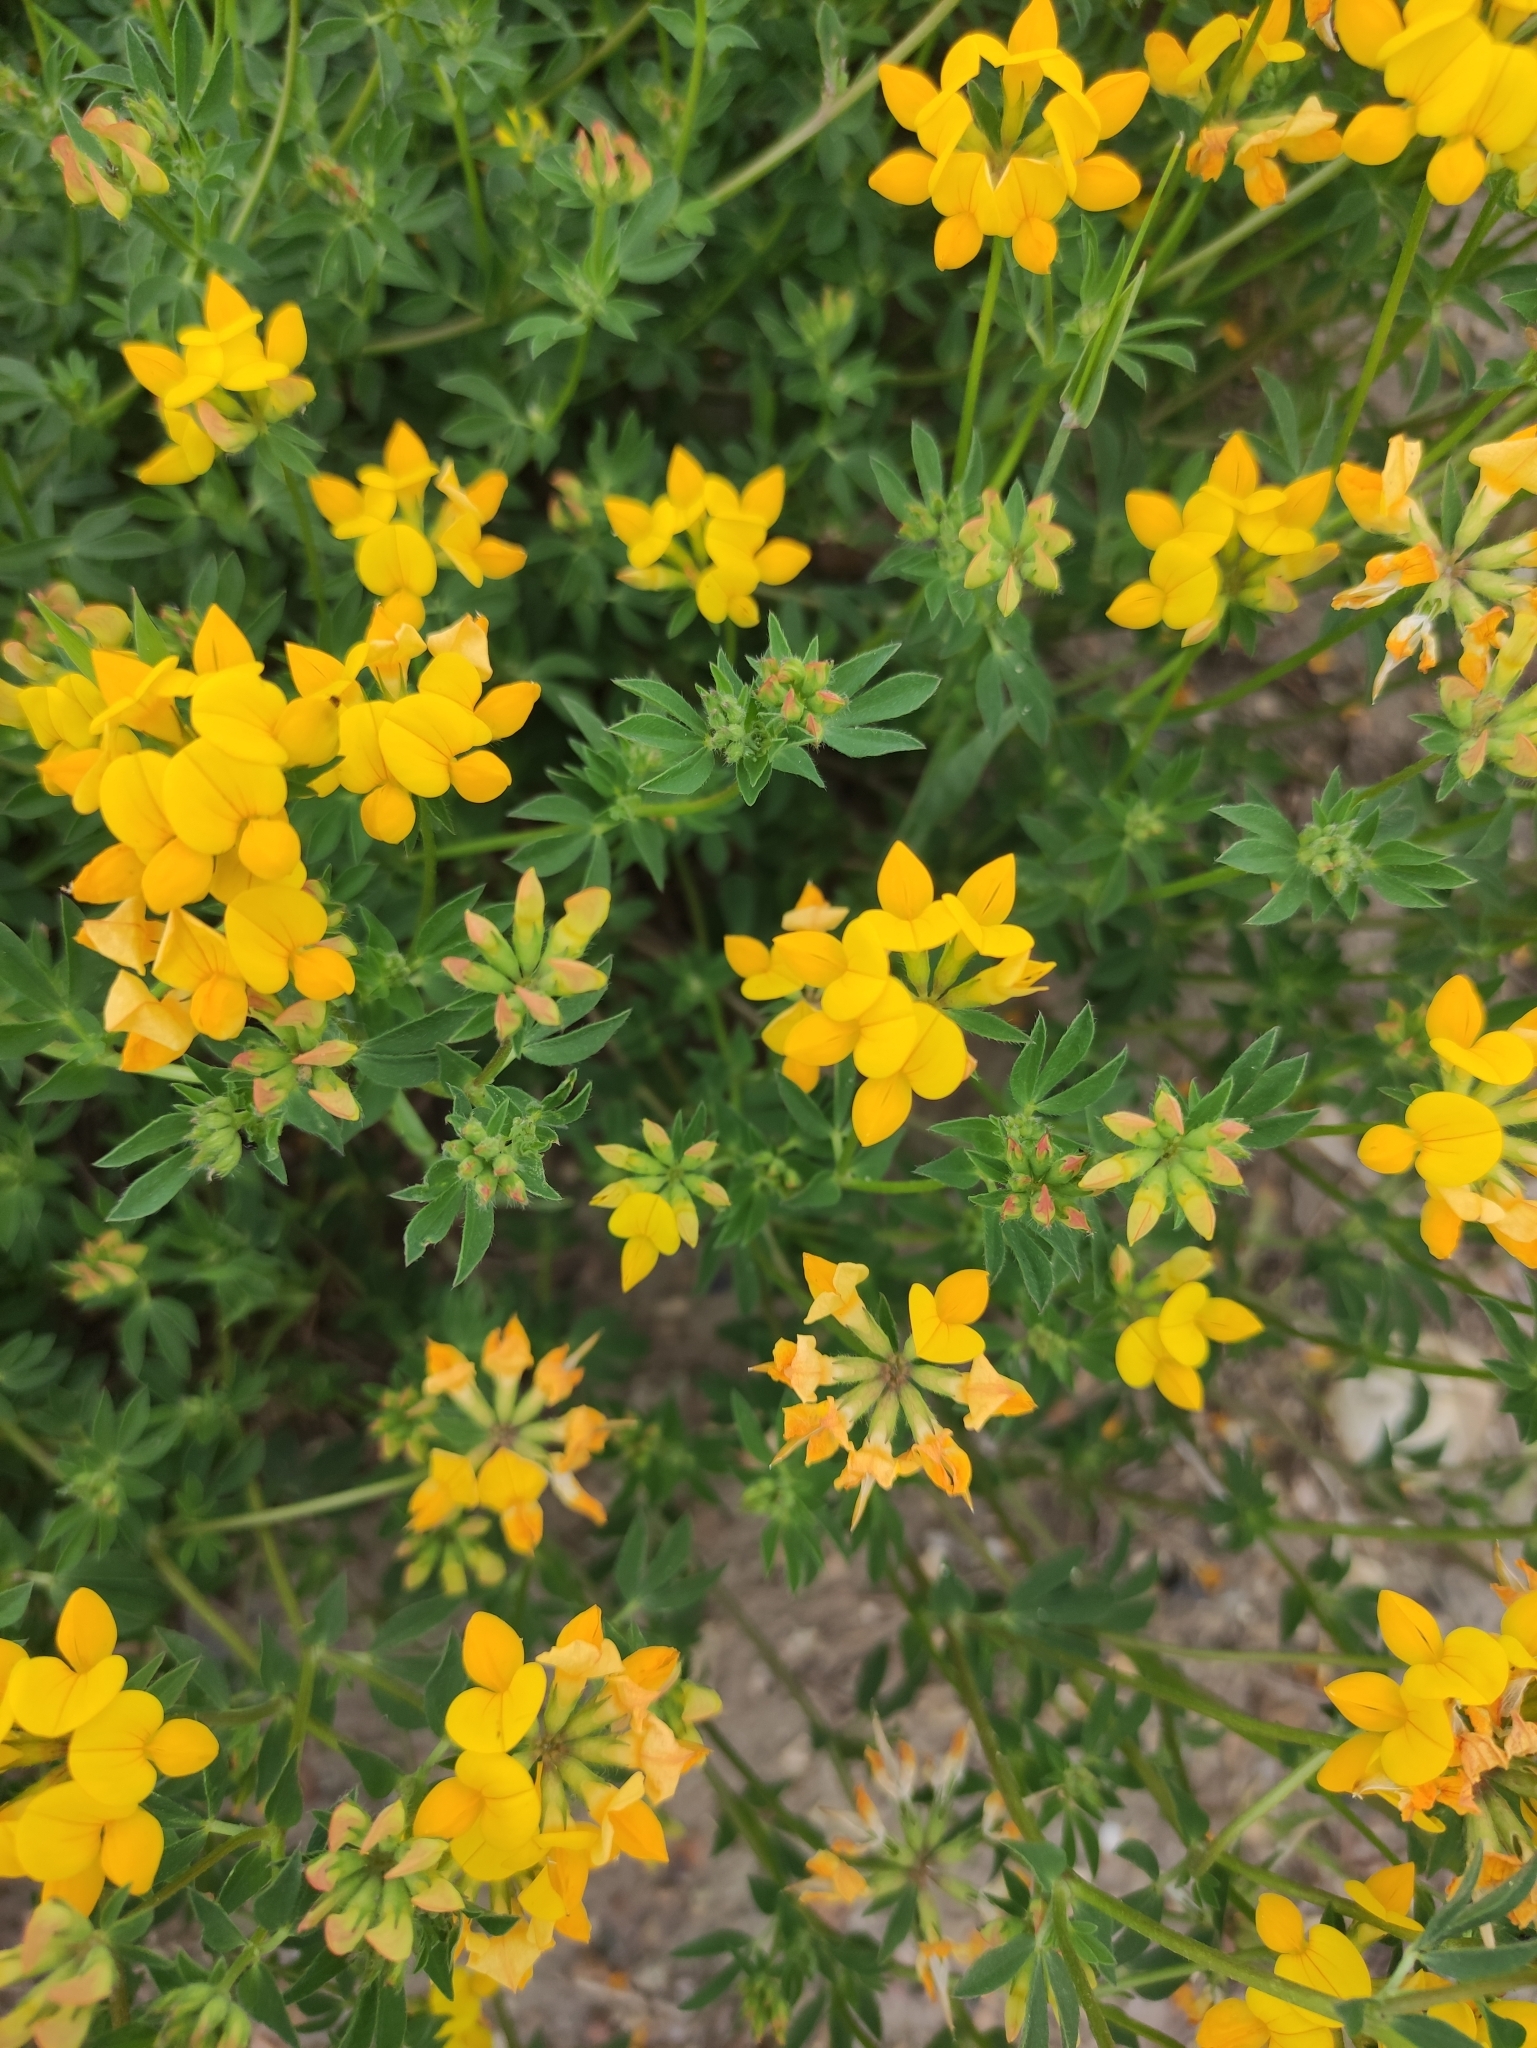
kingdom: Plantae
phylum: Tracheophyta
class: Magnoliopsida
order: Fabales
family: Fabaceae
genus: Lotus
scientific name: Lotus corniculatus
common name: Common bird's-foot-trefoil
